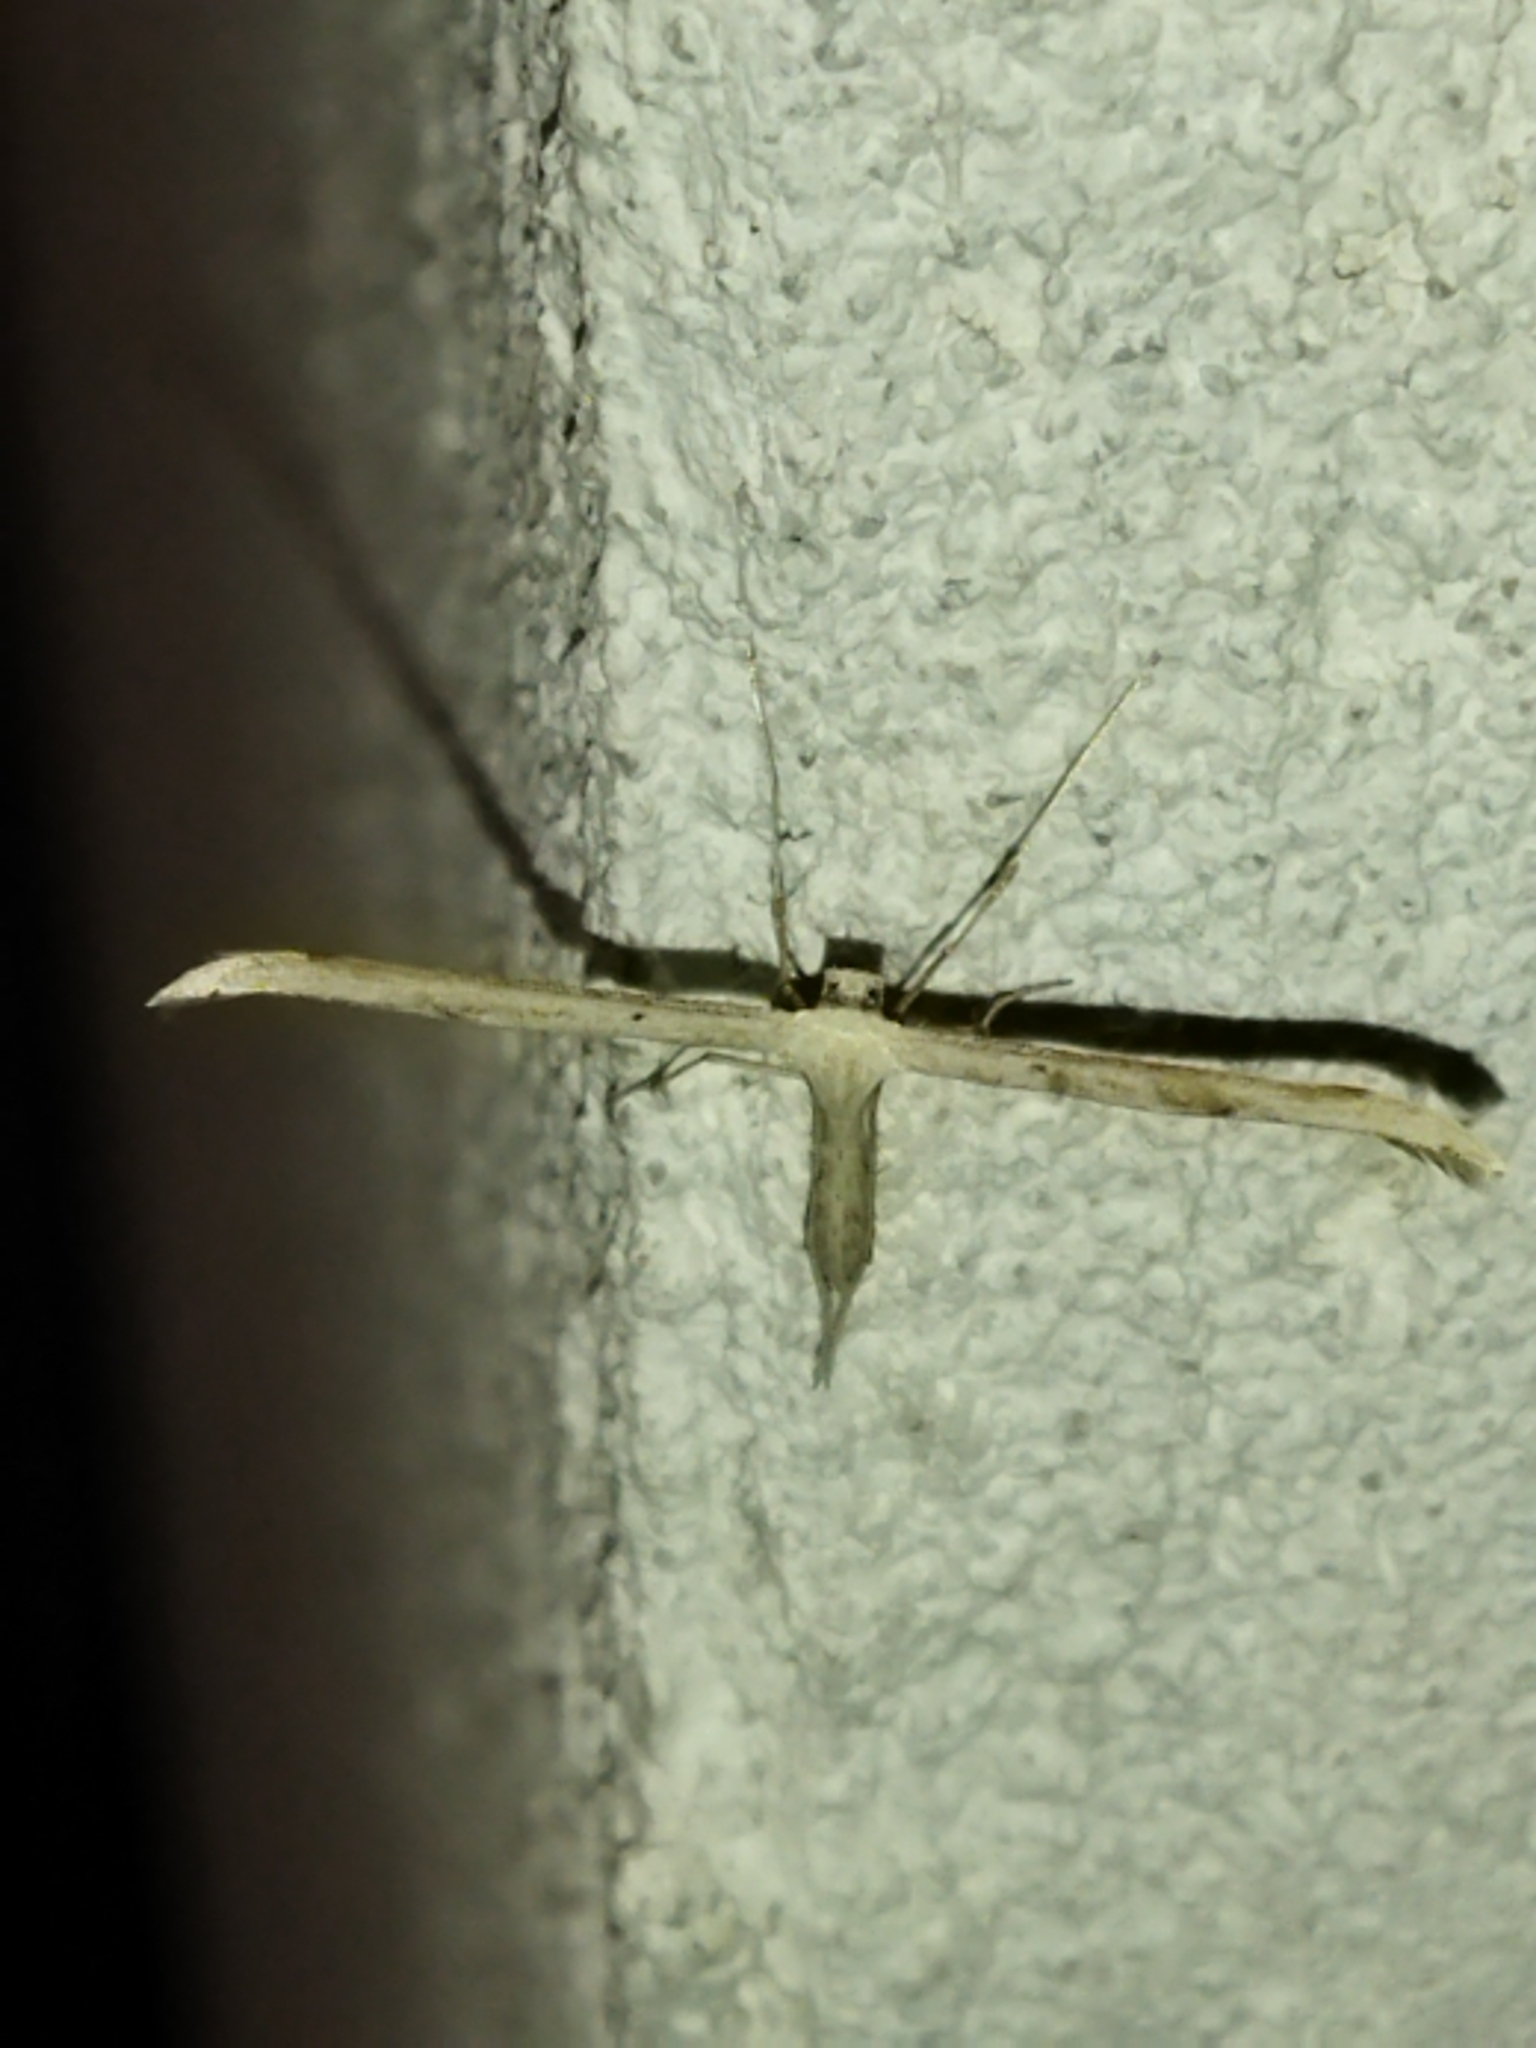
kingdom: Animalia
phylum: Arthropoda
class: Insecta
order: Lepidoptera
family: Pterophoridae
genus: Emmelina
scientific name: Emmelina monodactyla
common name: Common plume
